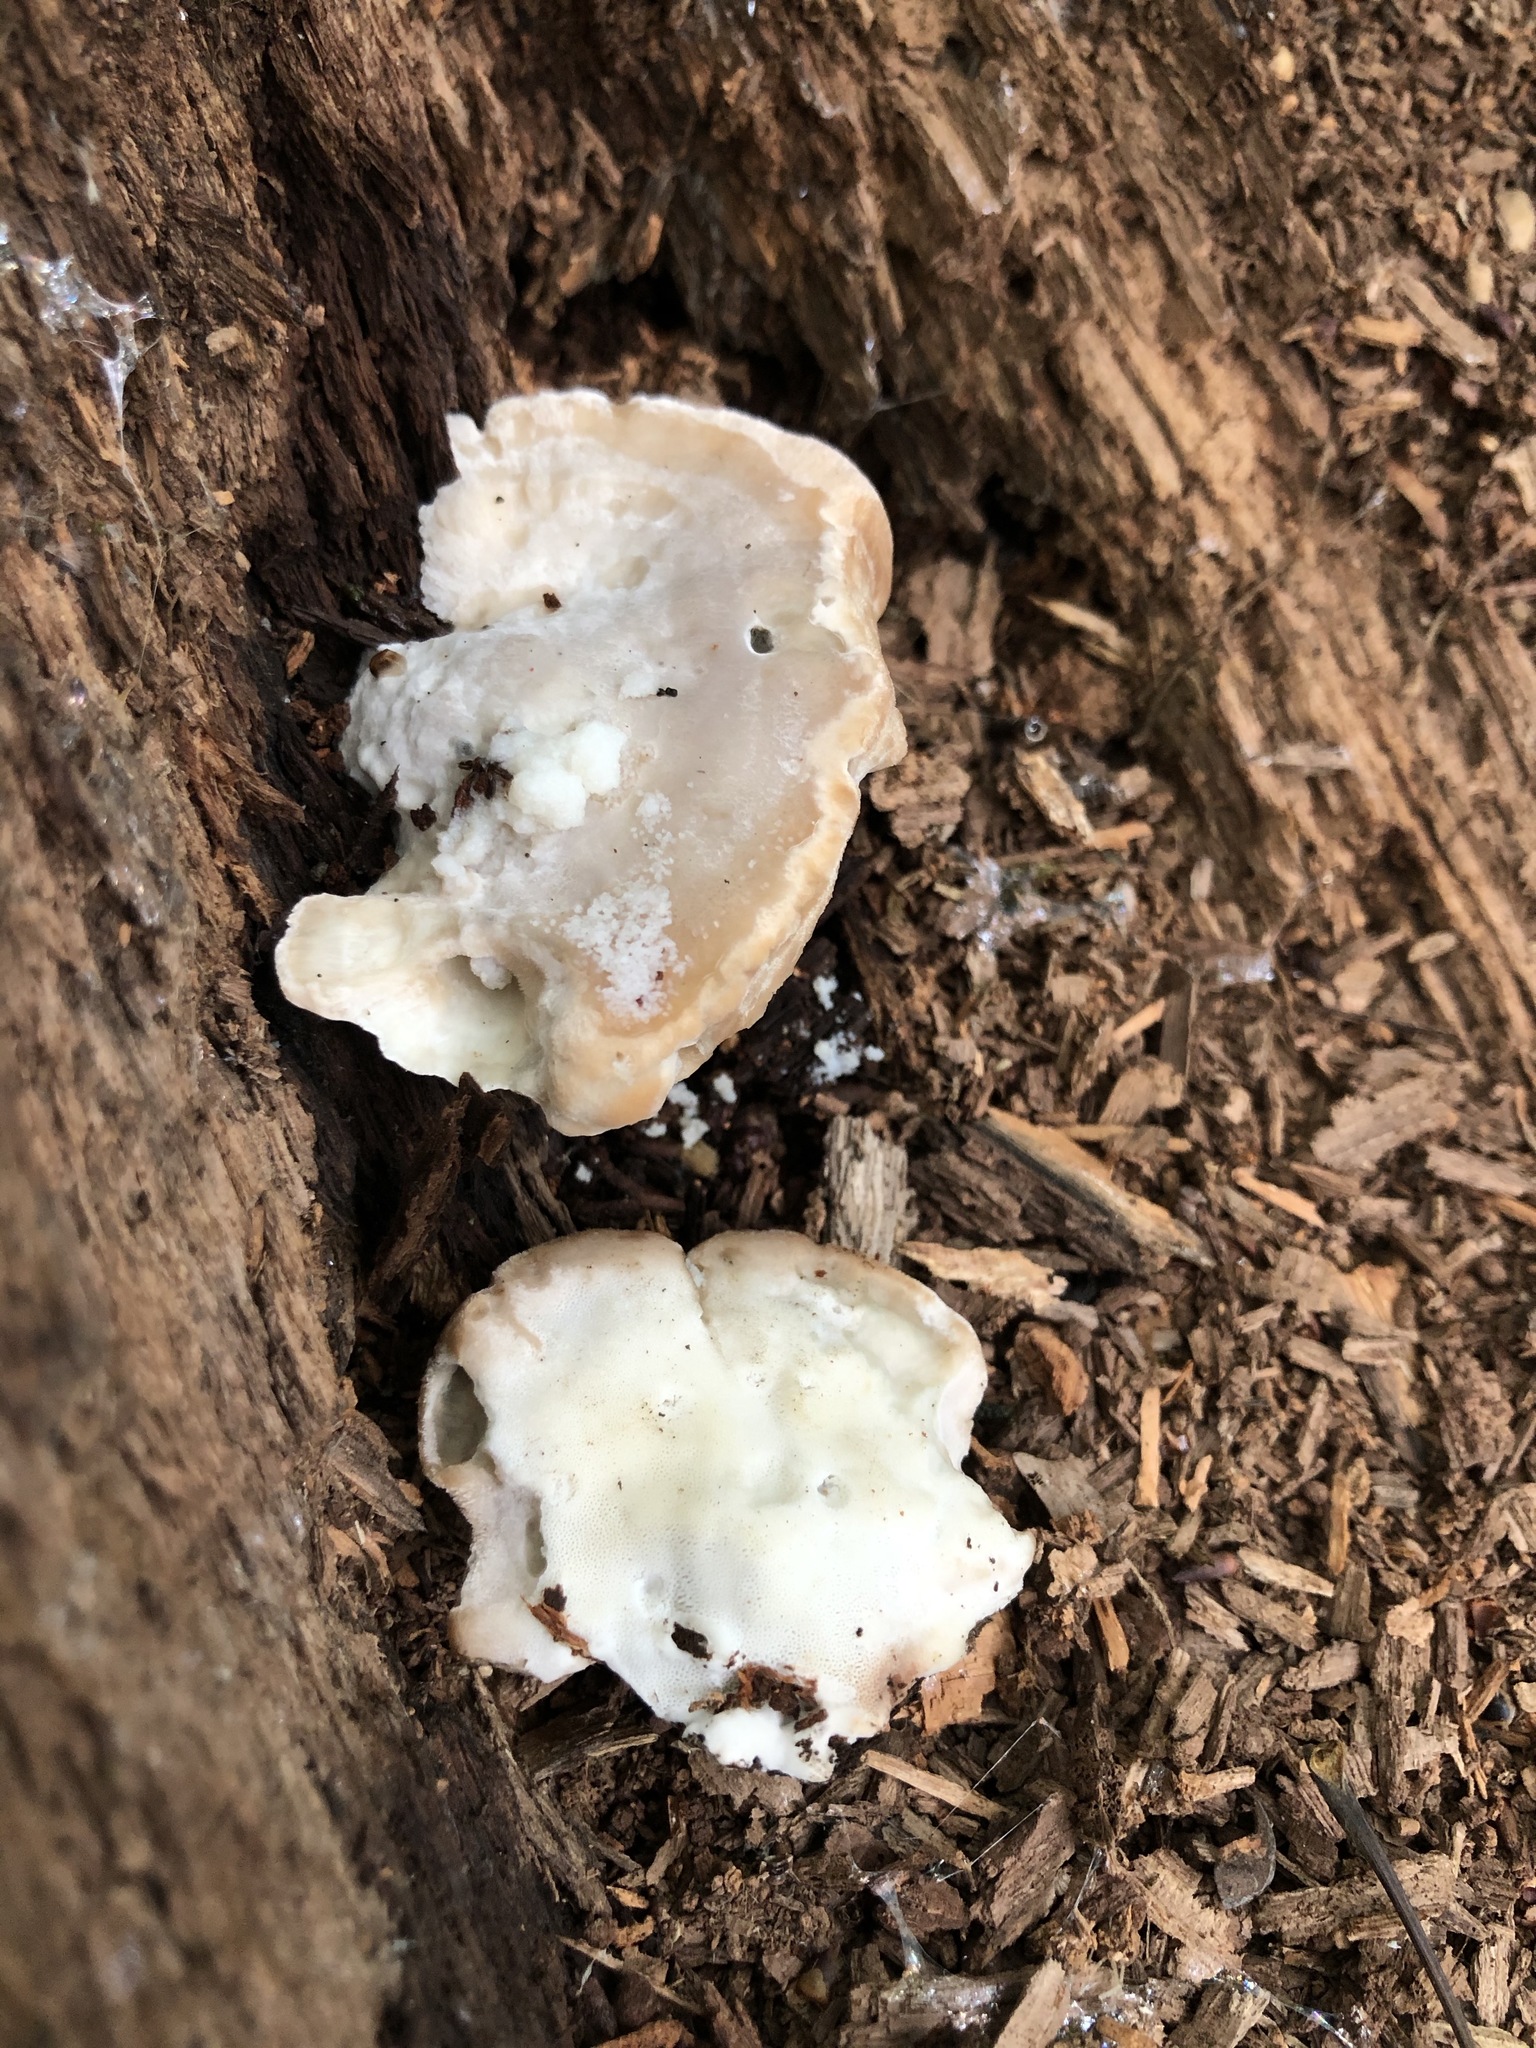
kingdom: Fungi
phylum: Basidiomycota
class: Agaricomycetes
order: Polyporales
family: Fomitopsidaceae
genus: Niveoporofomes
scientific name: Niveoporofomes spraguei
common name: Green cheese polypore
